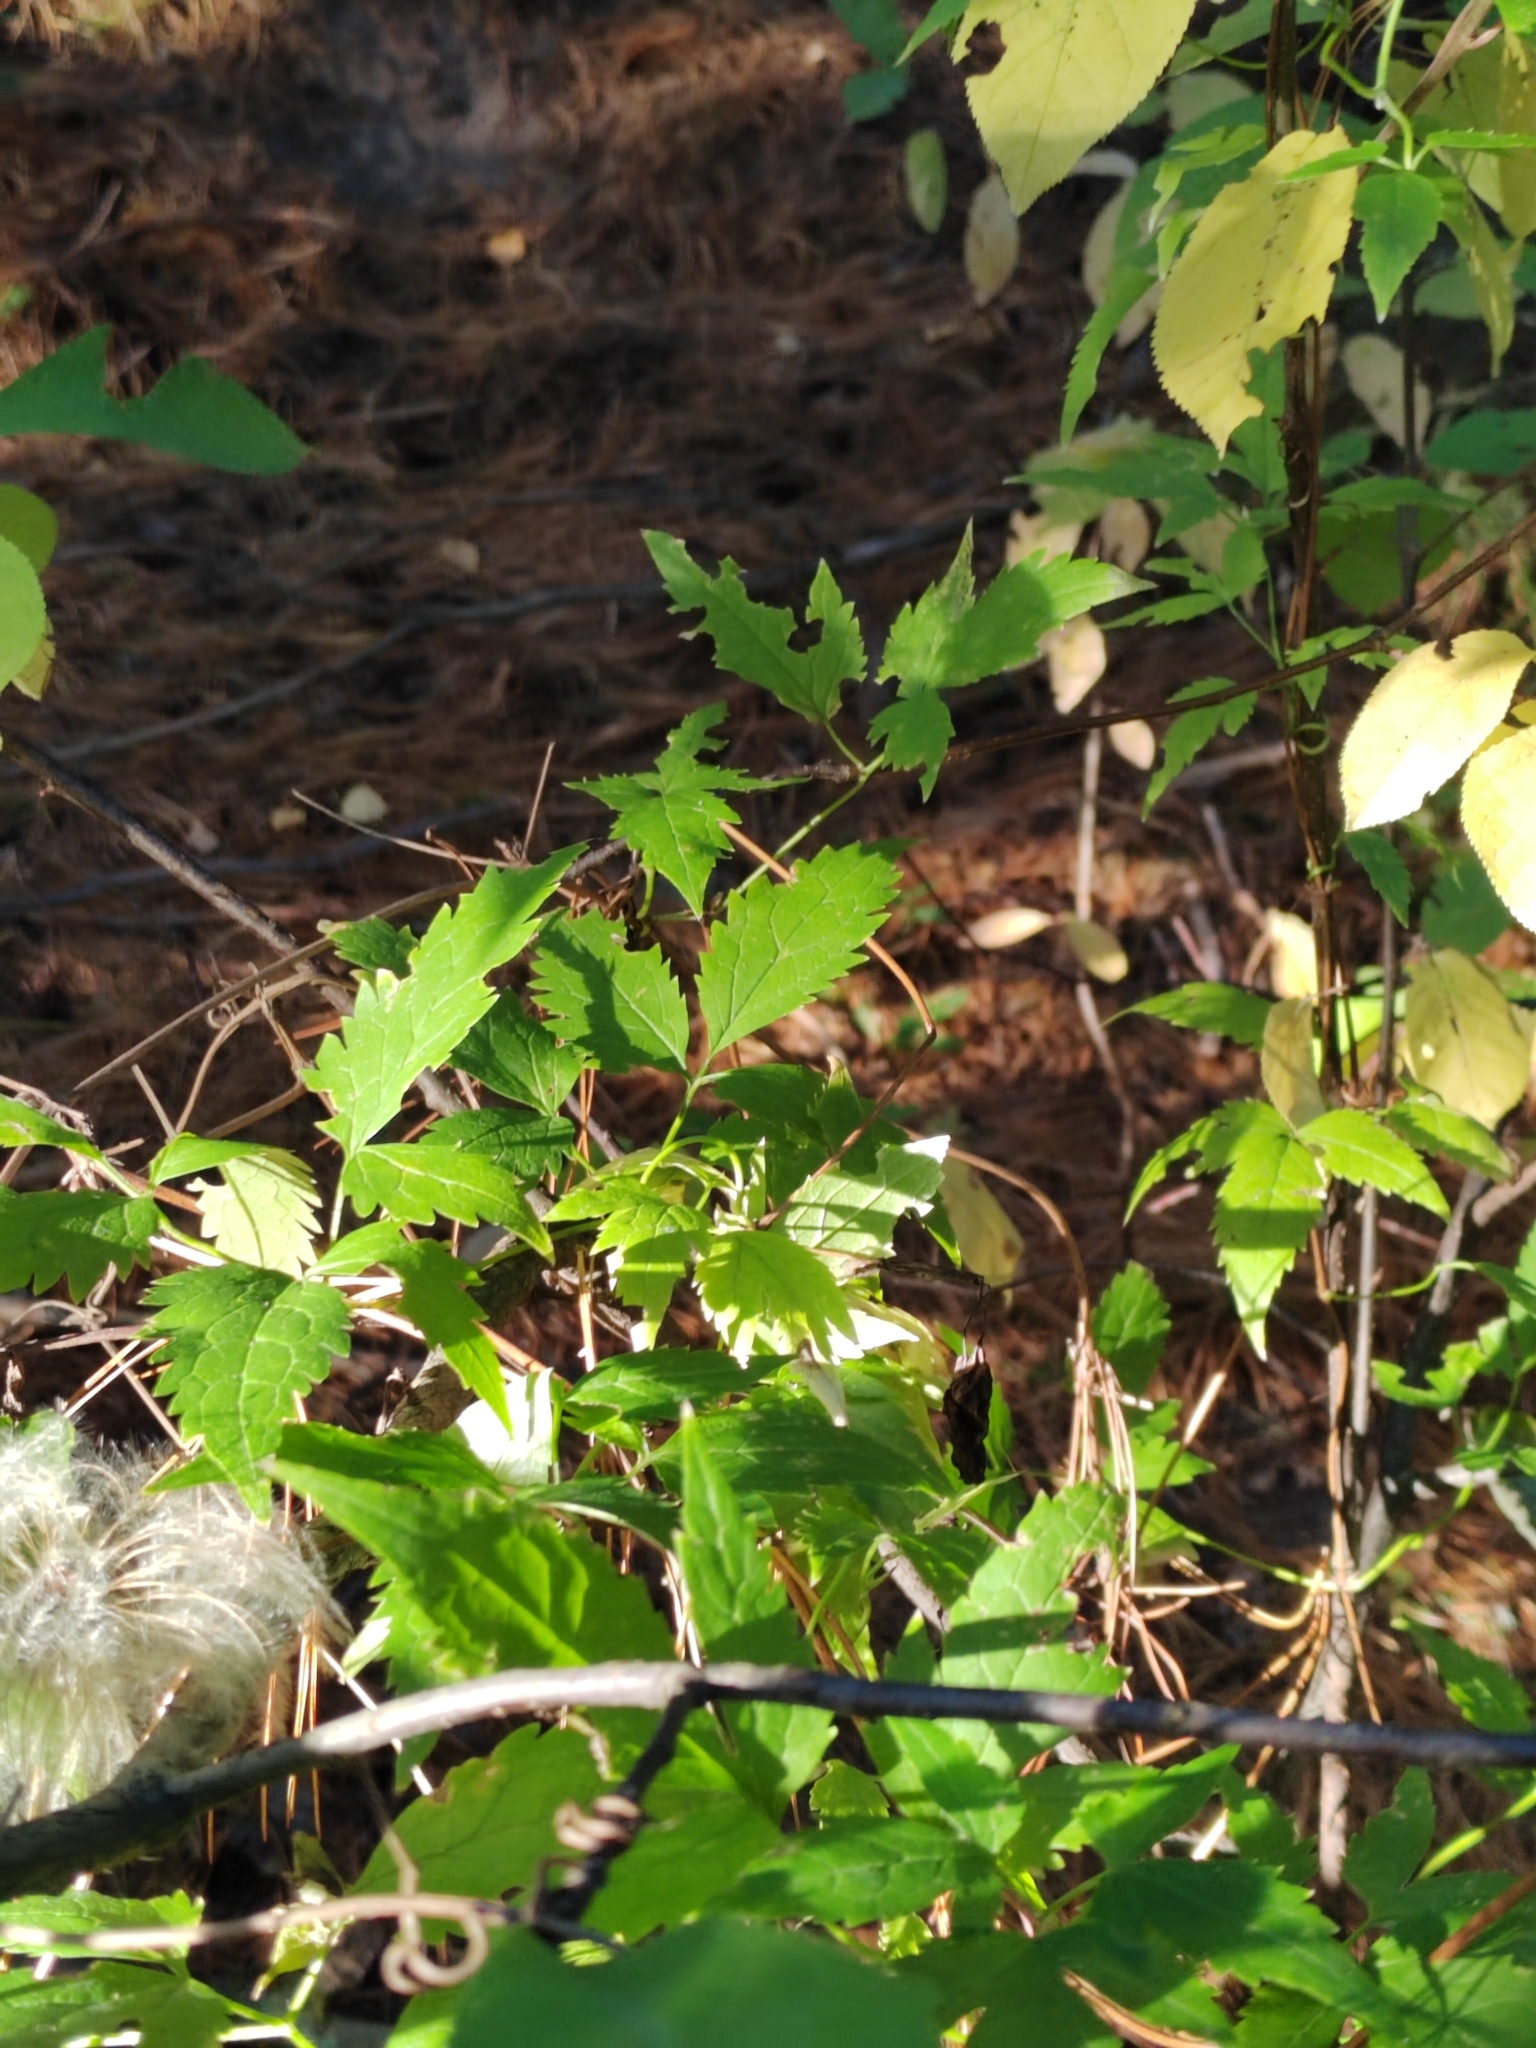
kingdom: Plantae
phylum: Tracheophyta
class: Magnoliopsida
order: Ranunculales
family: Ranunculaceae
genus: Clematis
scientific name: Clematis sibirica
